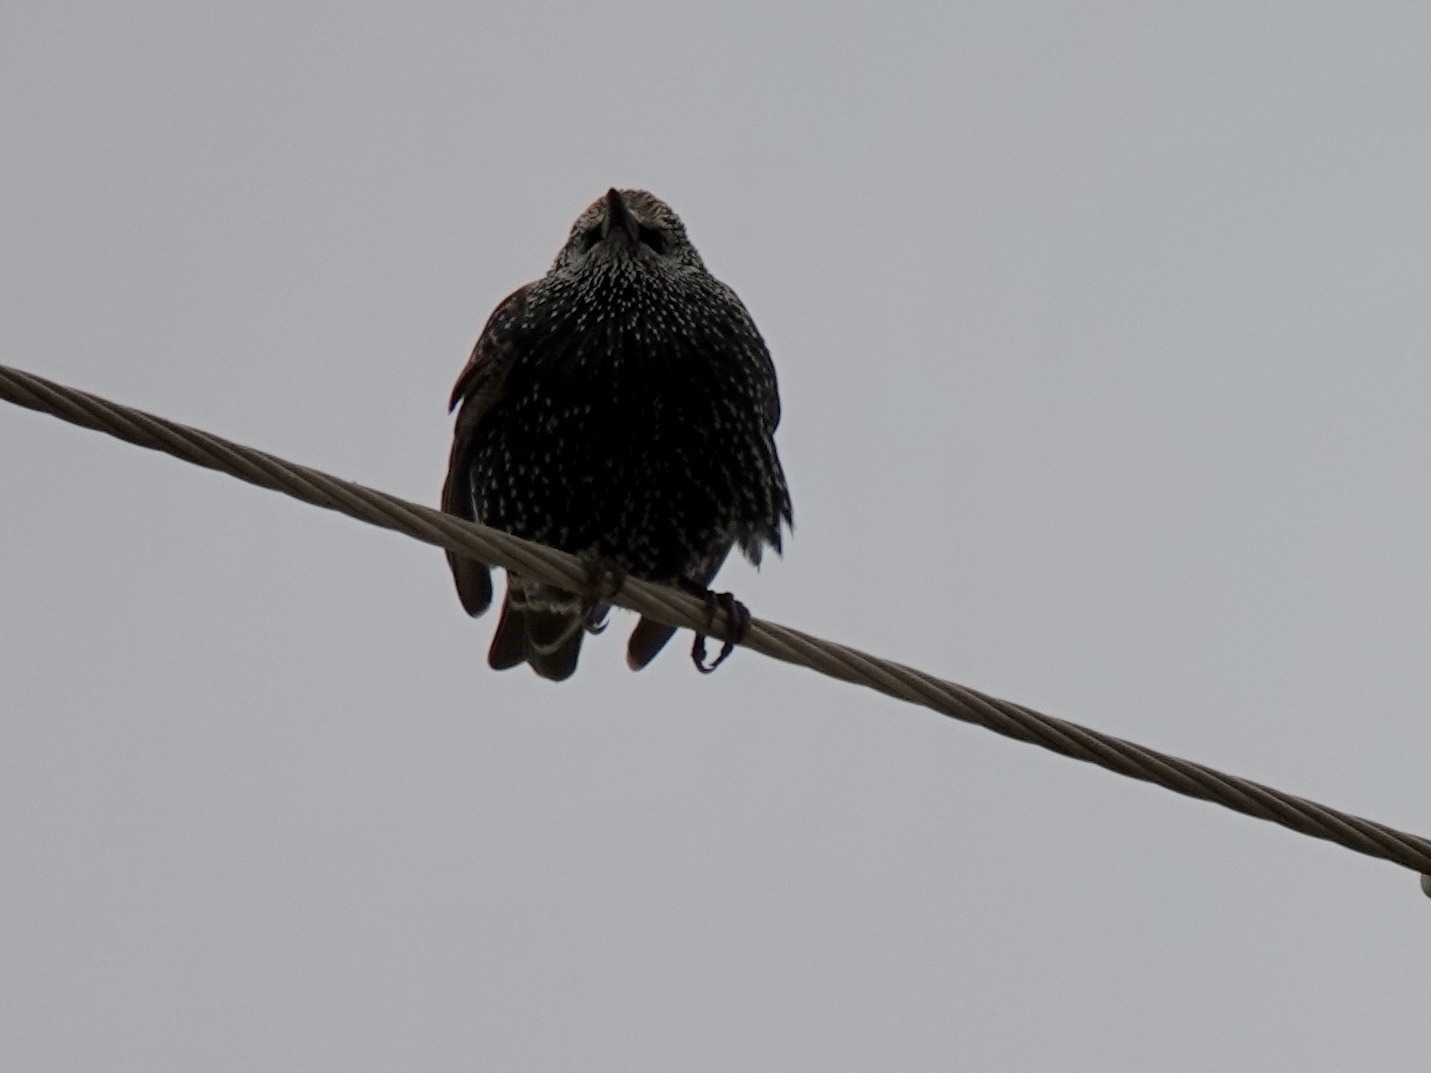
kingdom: Animalia
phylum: Chordata
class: Aves
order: Passeriformes
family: Sturnidae
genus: Sturnus
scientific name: Sturnus vulgaris
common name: Common starling
